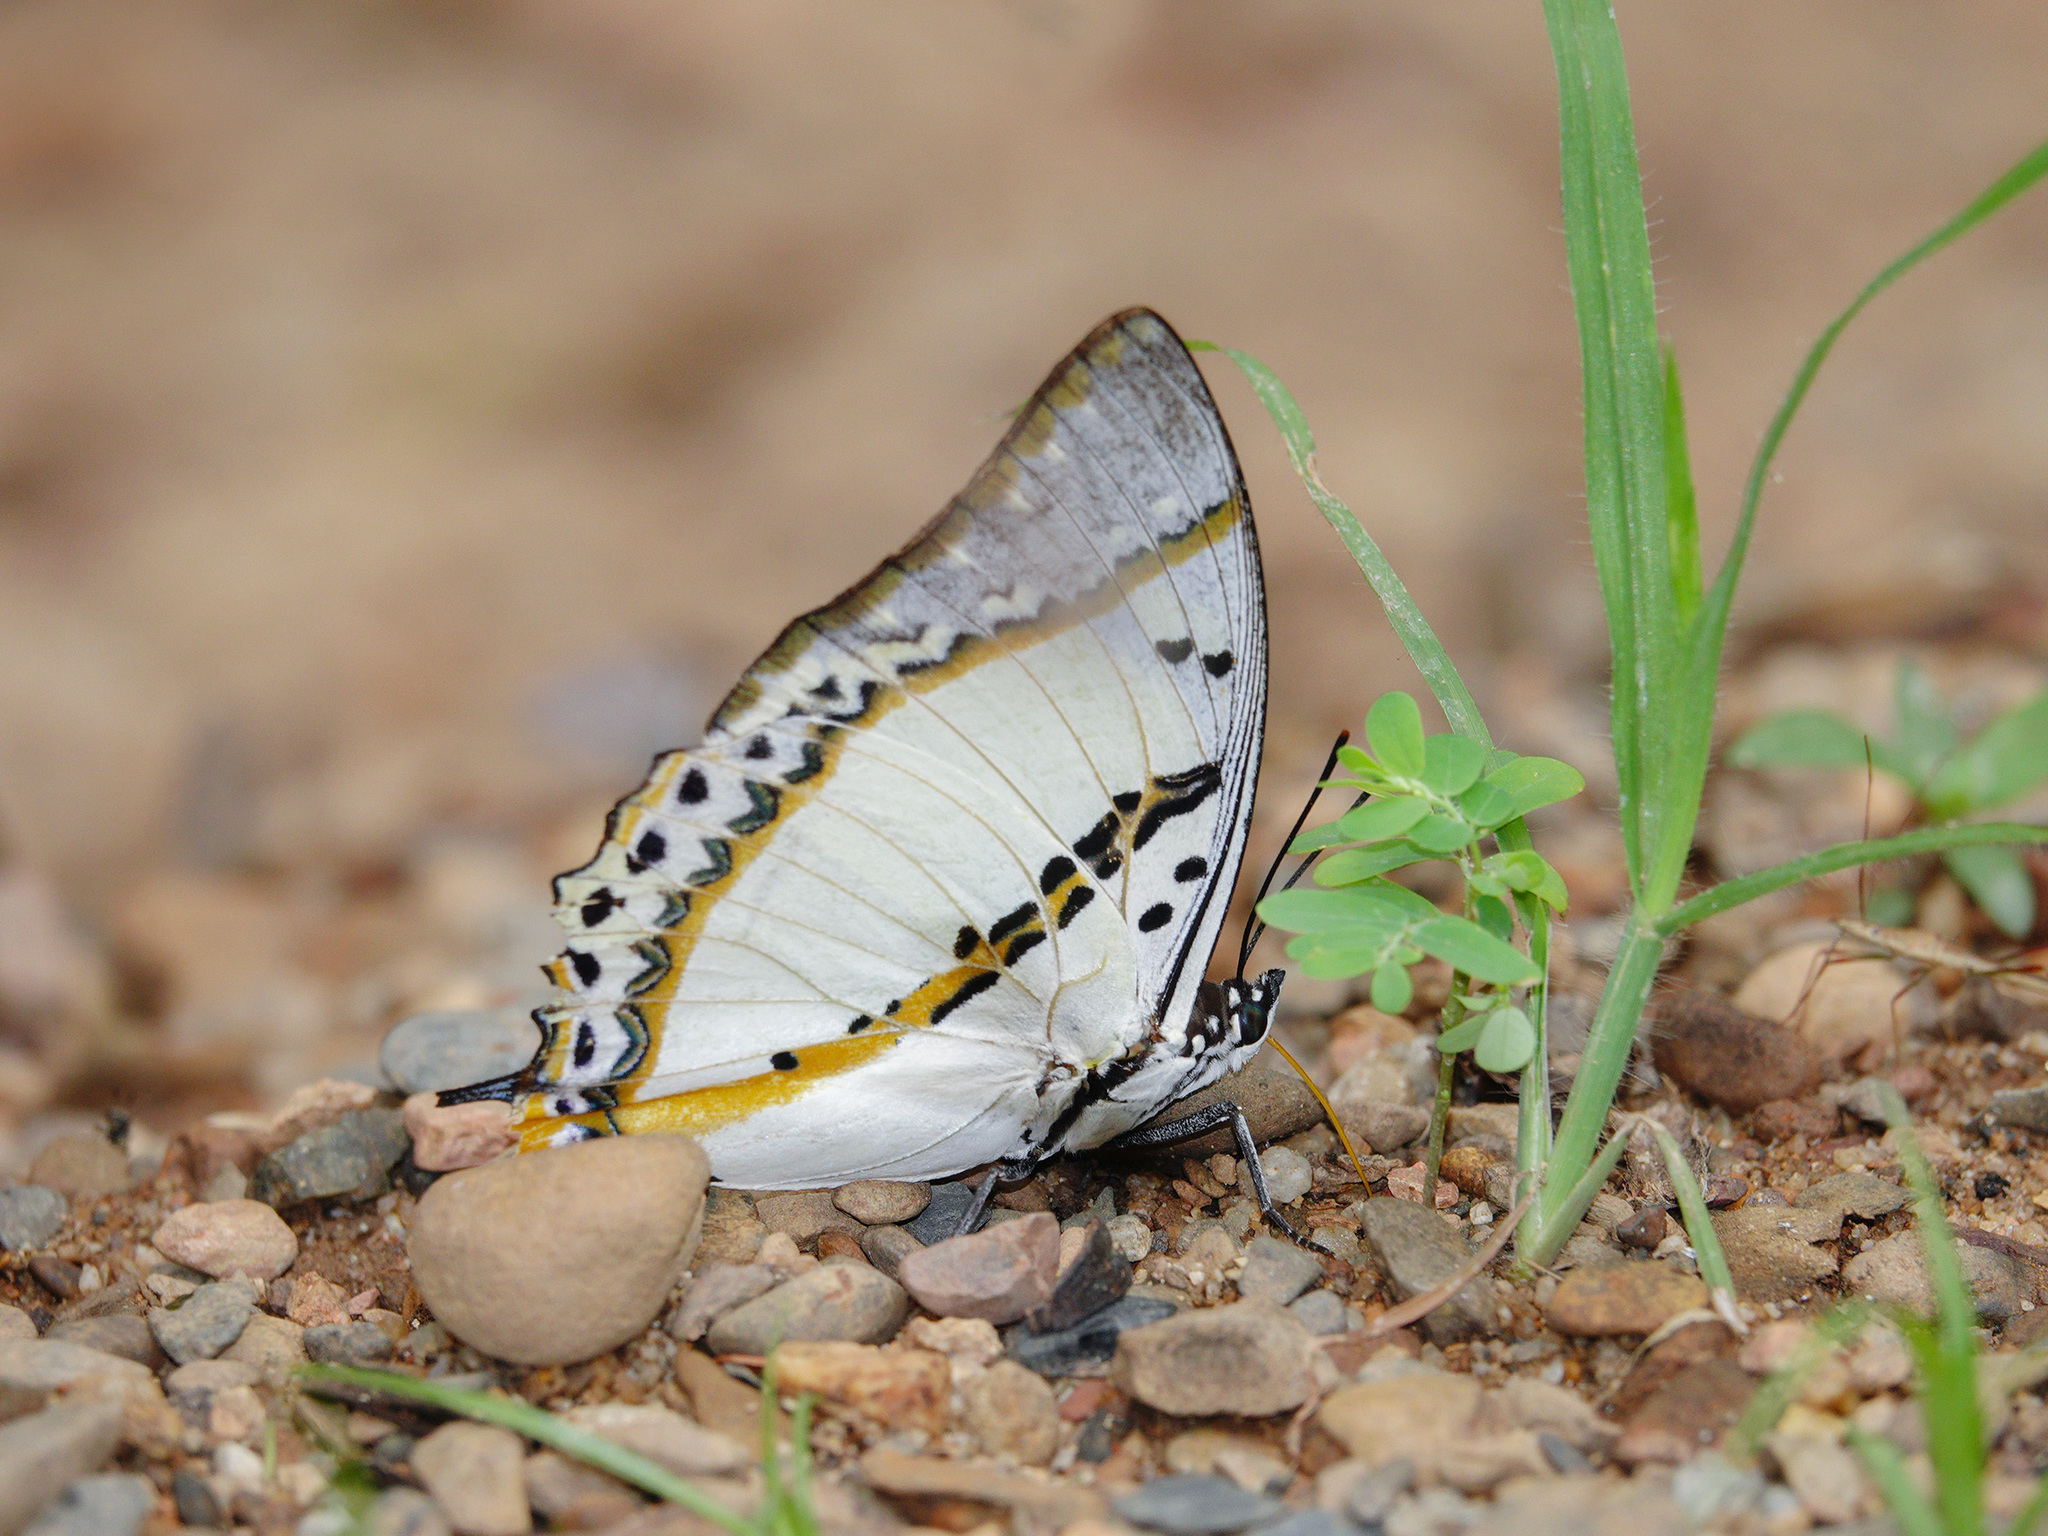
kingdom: Animalia
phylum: Arthropoda
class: Insecta
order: Lepidoptera
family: Nymphalidae
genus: Polyura
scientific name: Polyura nepenthes
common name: Shan nawab
